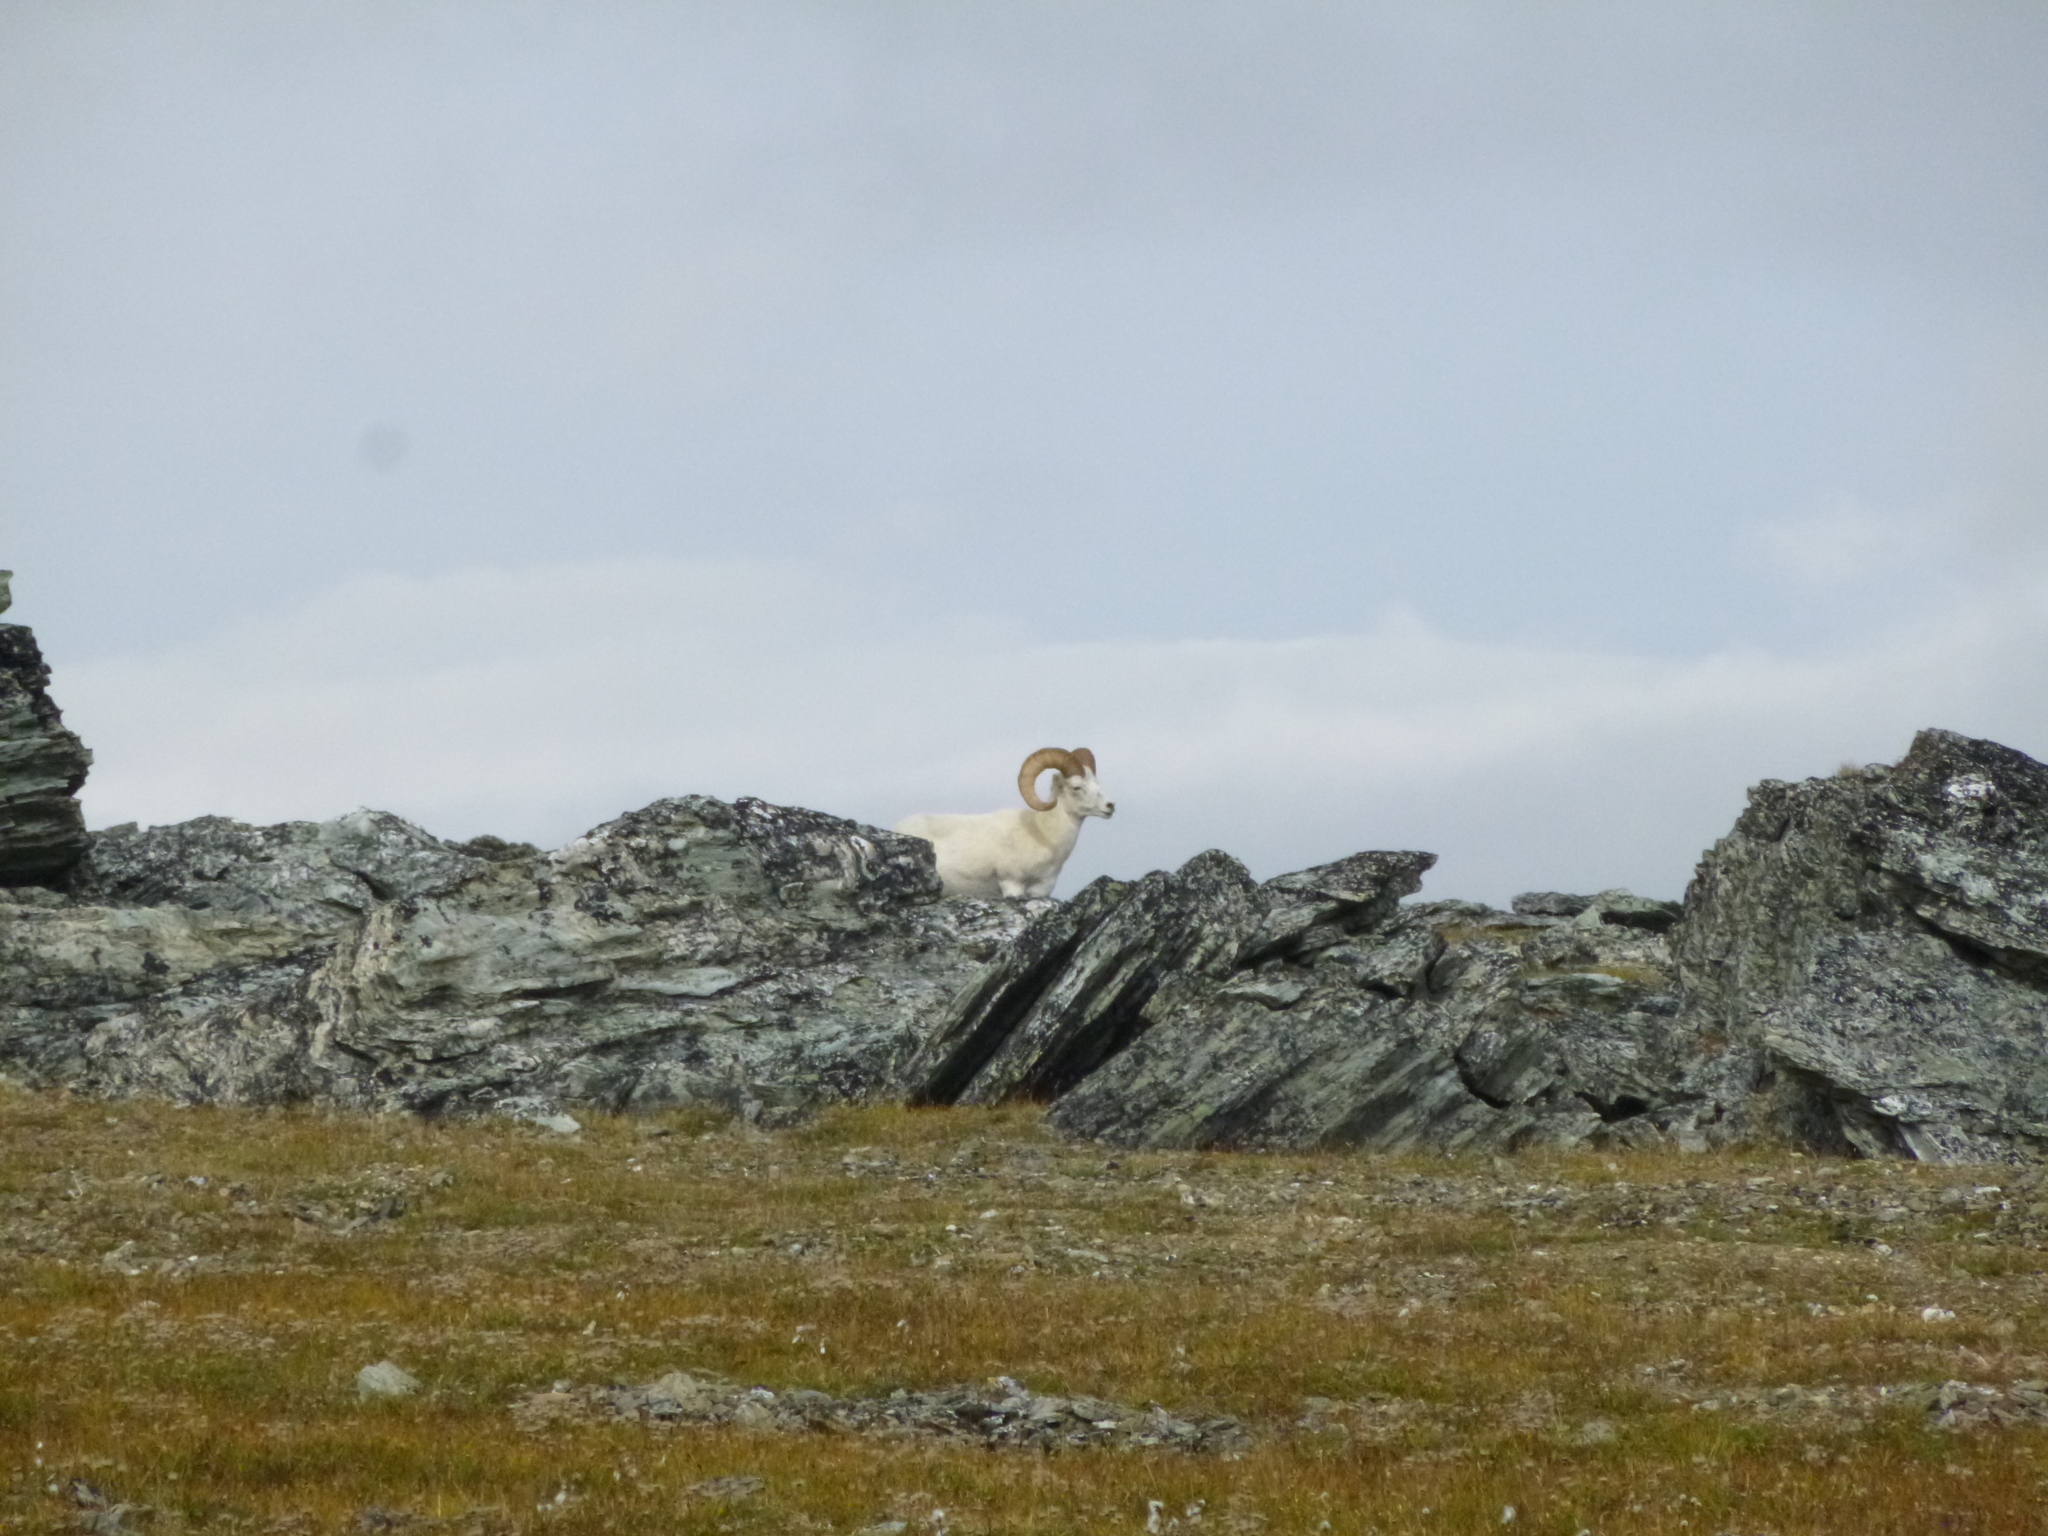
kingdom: Animalia
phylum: Chordata
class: Mammalia
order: Artiodactyla
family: Bovidae
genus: Ovis
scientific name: Ovis dalli
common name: Dall's sheep
